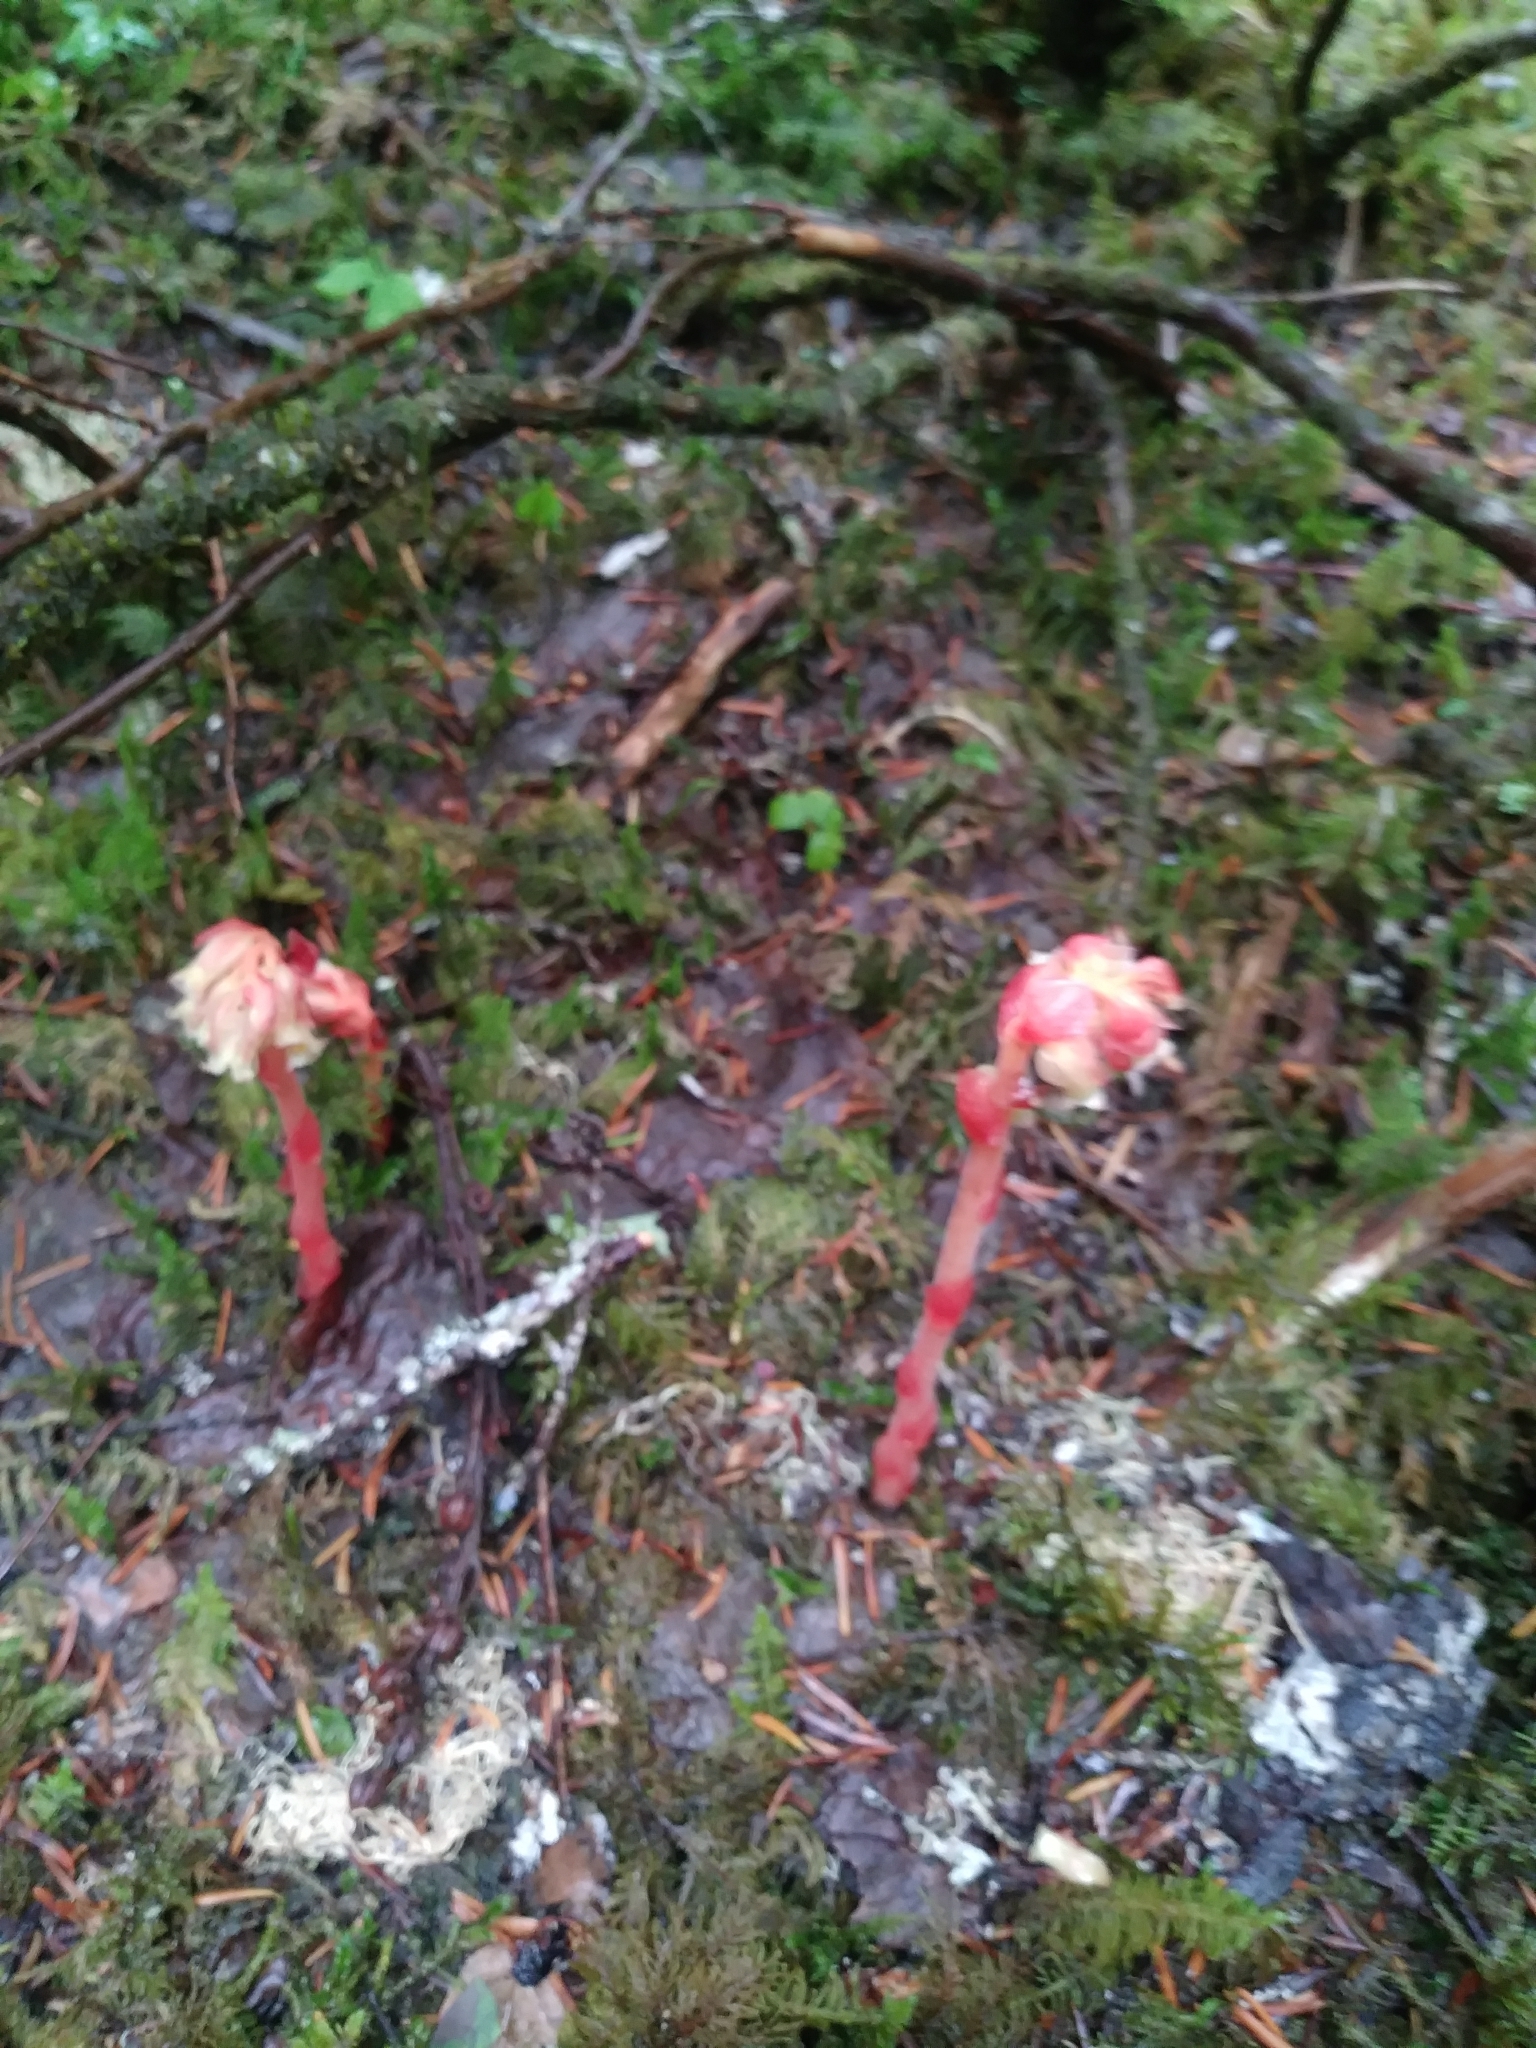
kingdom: Plantae
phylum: Tracheophyta
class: Magnoliopsida
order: Ericales
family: Ericaceae
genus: Hypopitys
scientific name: Hypopitys monotropa
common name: Yellow bird's-nest
